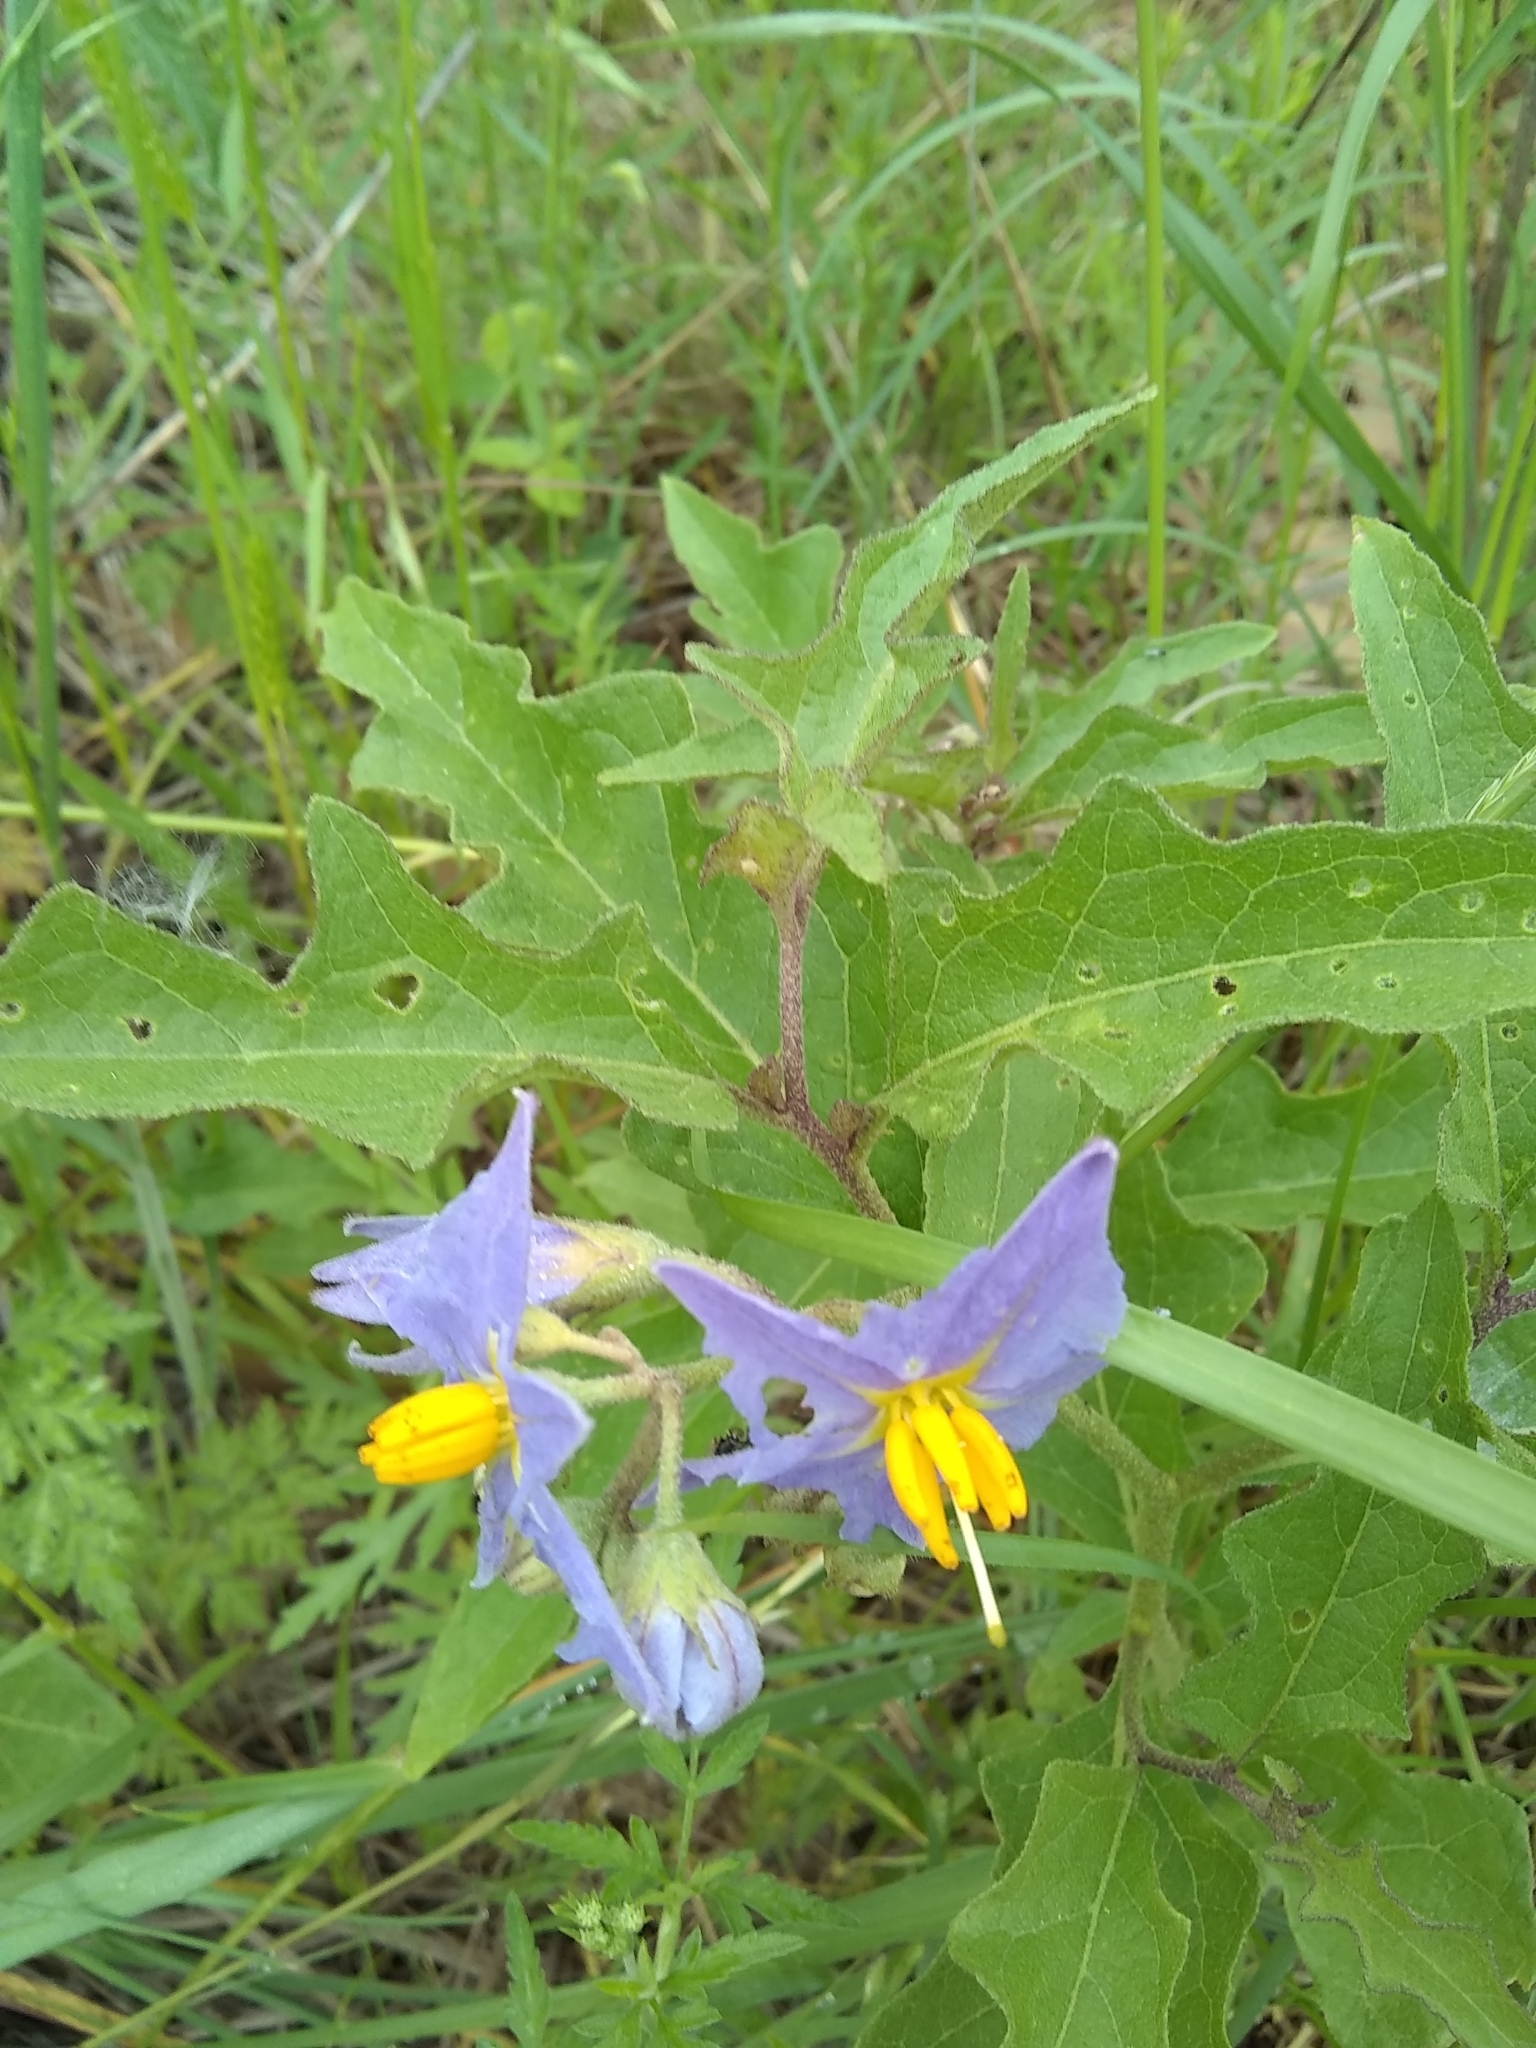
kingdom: Plantae
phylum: Tracheophyta
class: Magnoliopsida
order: Solanales
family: Solanaceae
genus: Solanum
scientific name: Solanum dimidiatum
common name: Carolina horse-nettle
